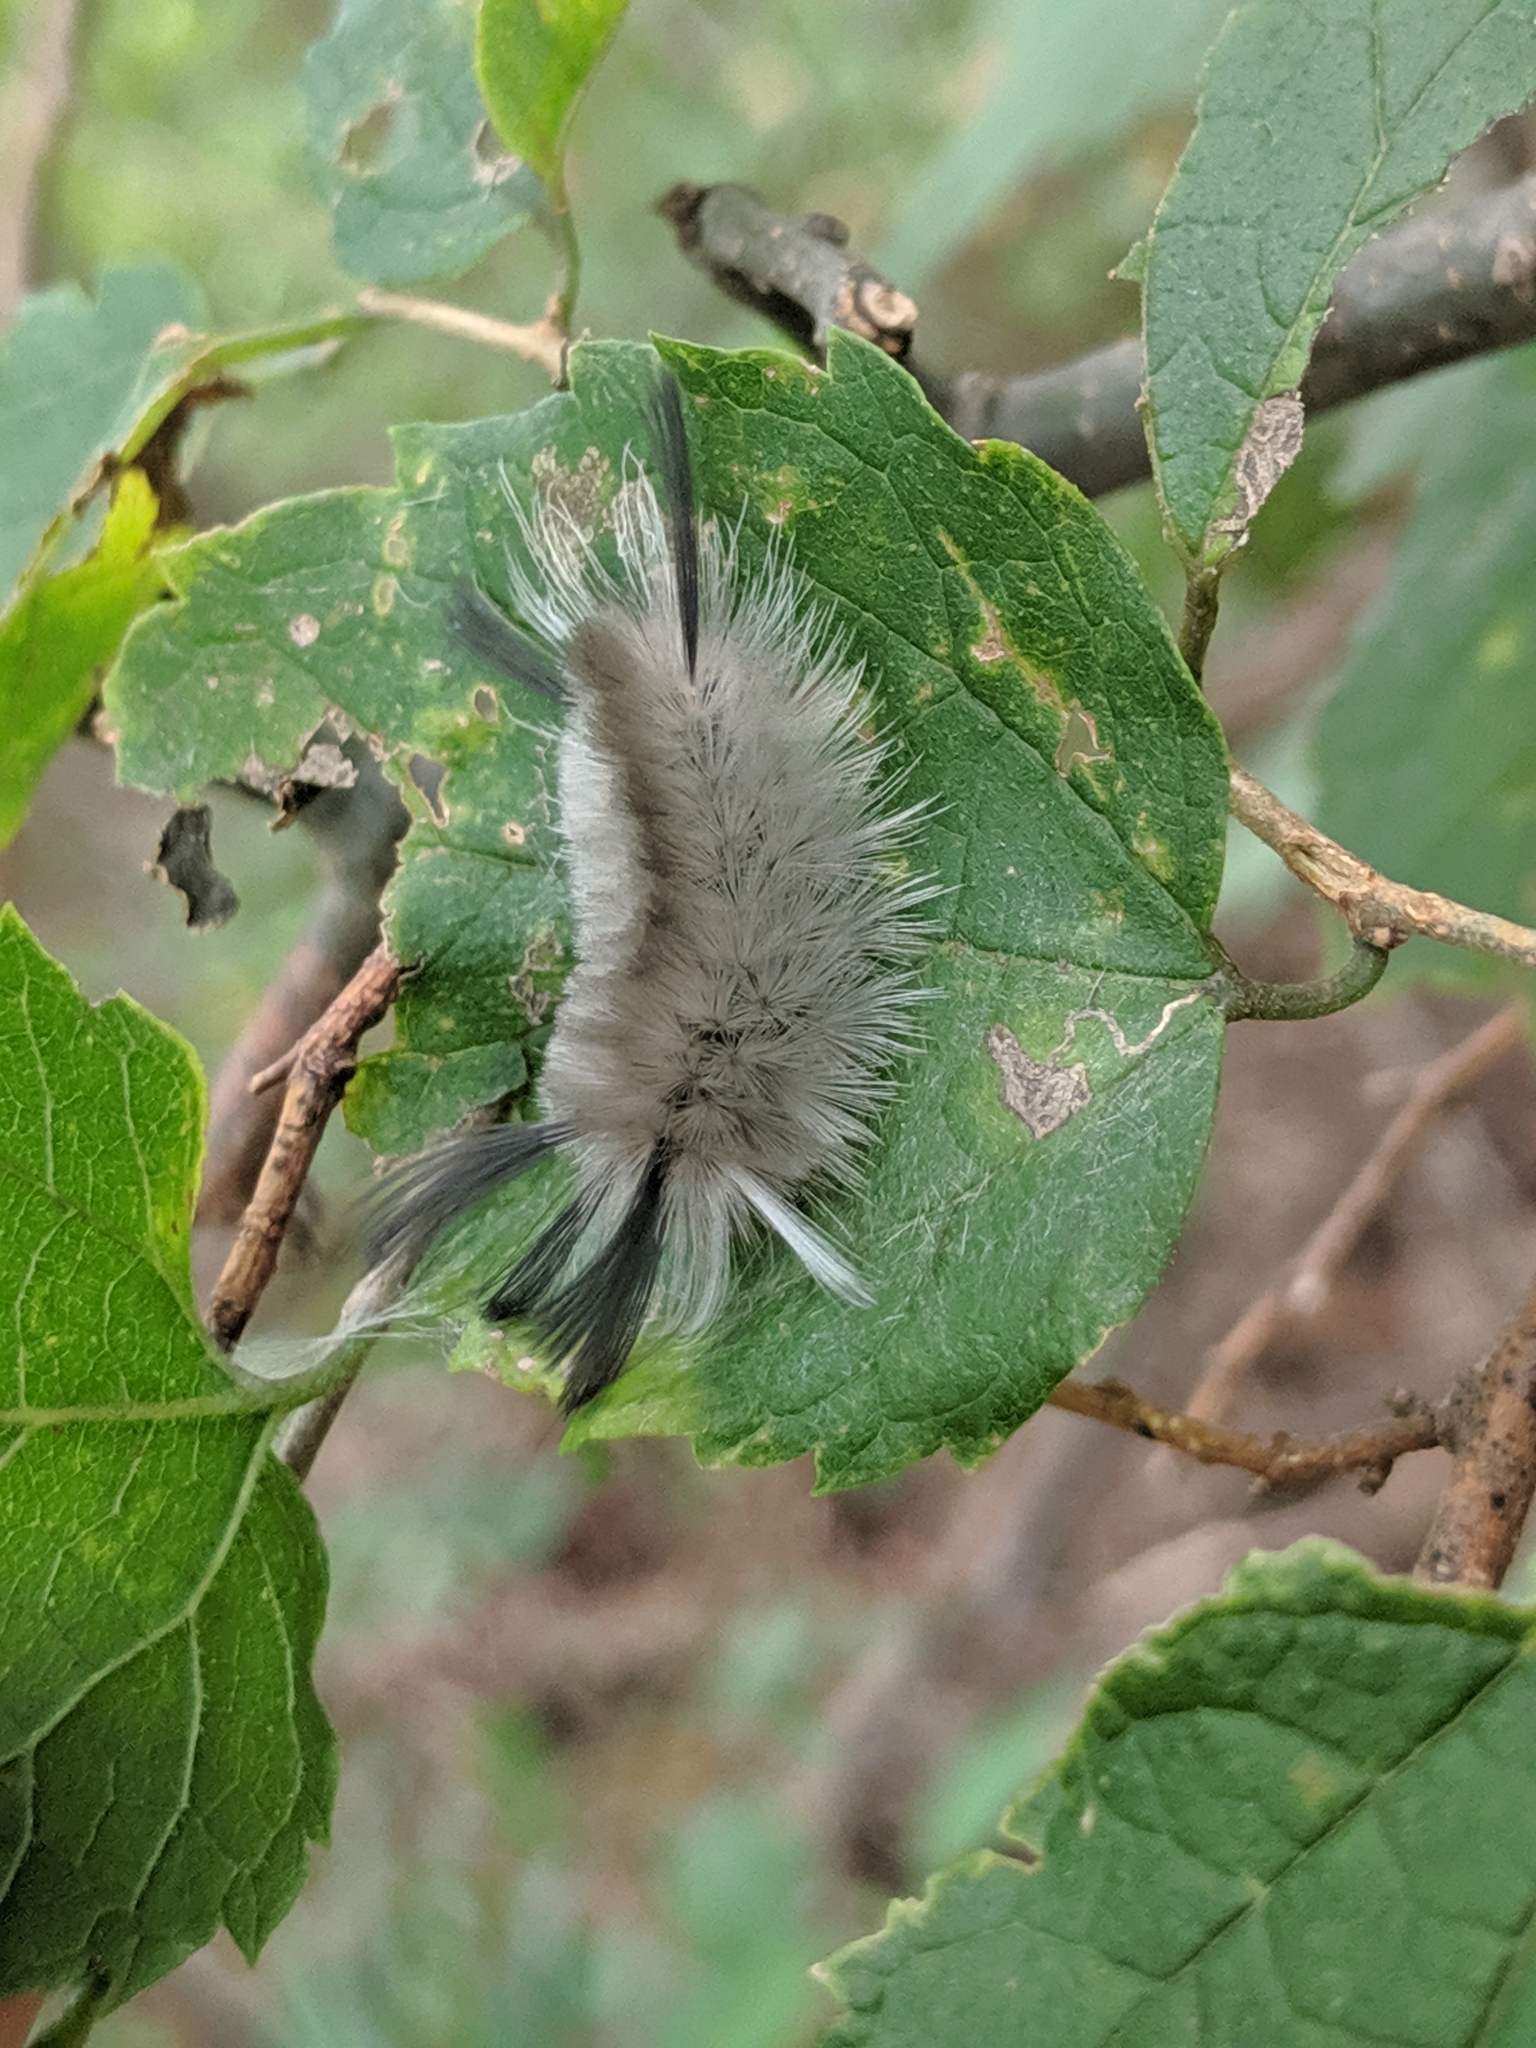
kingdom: Animalia
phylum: Arthropoda
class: Insecta
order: Lepidoptera
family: Erebidae
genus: Halysidota
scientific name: Halysidota tessellaris
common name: Banded tussock moth
